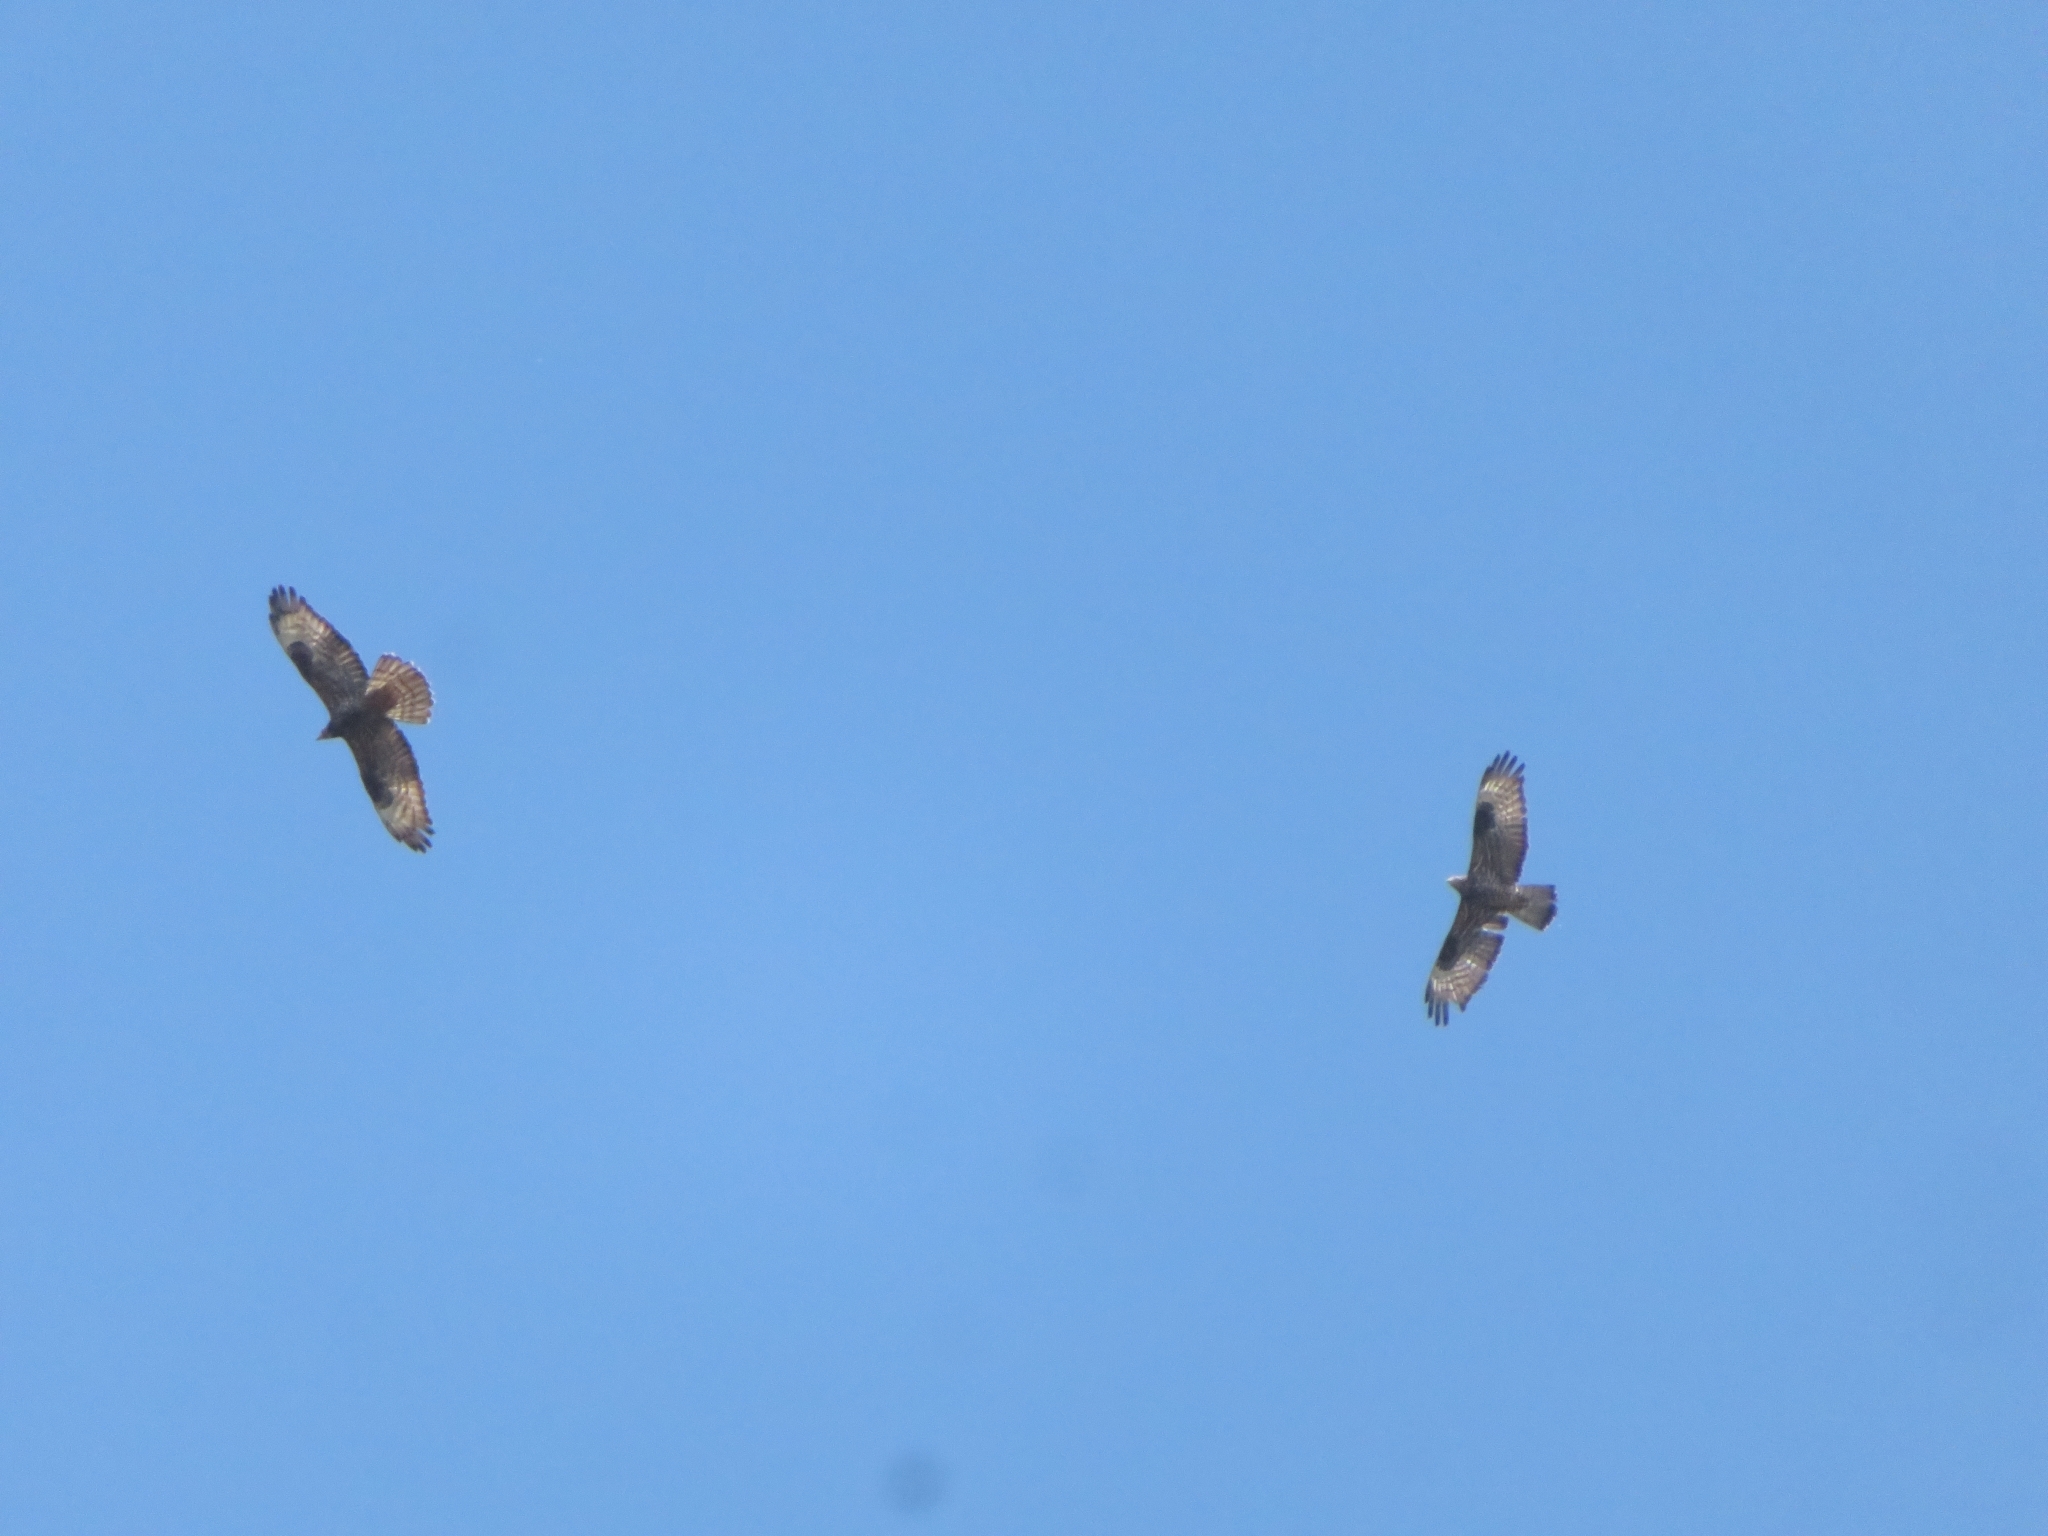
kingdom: Animalia
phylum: Chordata
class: Aves
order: Accipitriformes
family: Accipitridae
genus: Pernis
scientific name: Pernis apivorus
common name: European honey buzzard
